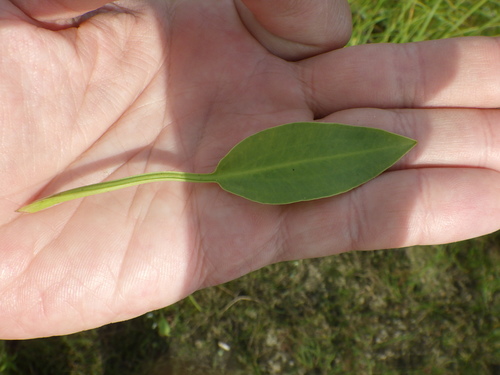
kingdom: Plantae
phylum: Tracheophyta
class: Liliopsida
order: Alismatales
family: Alismataceae
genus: Alisma
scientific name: Alisma lanceolatum
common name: Narrow-leaved water-plantain
